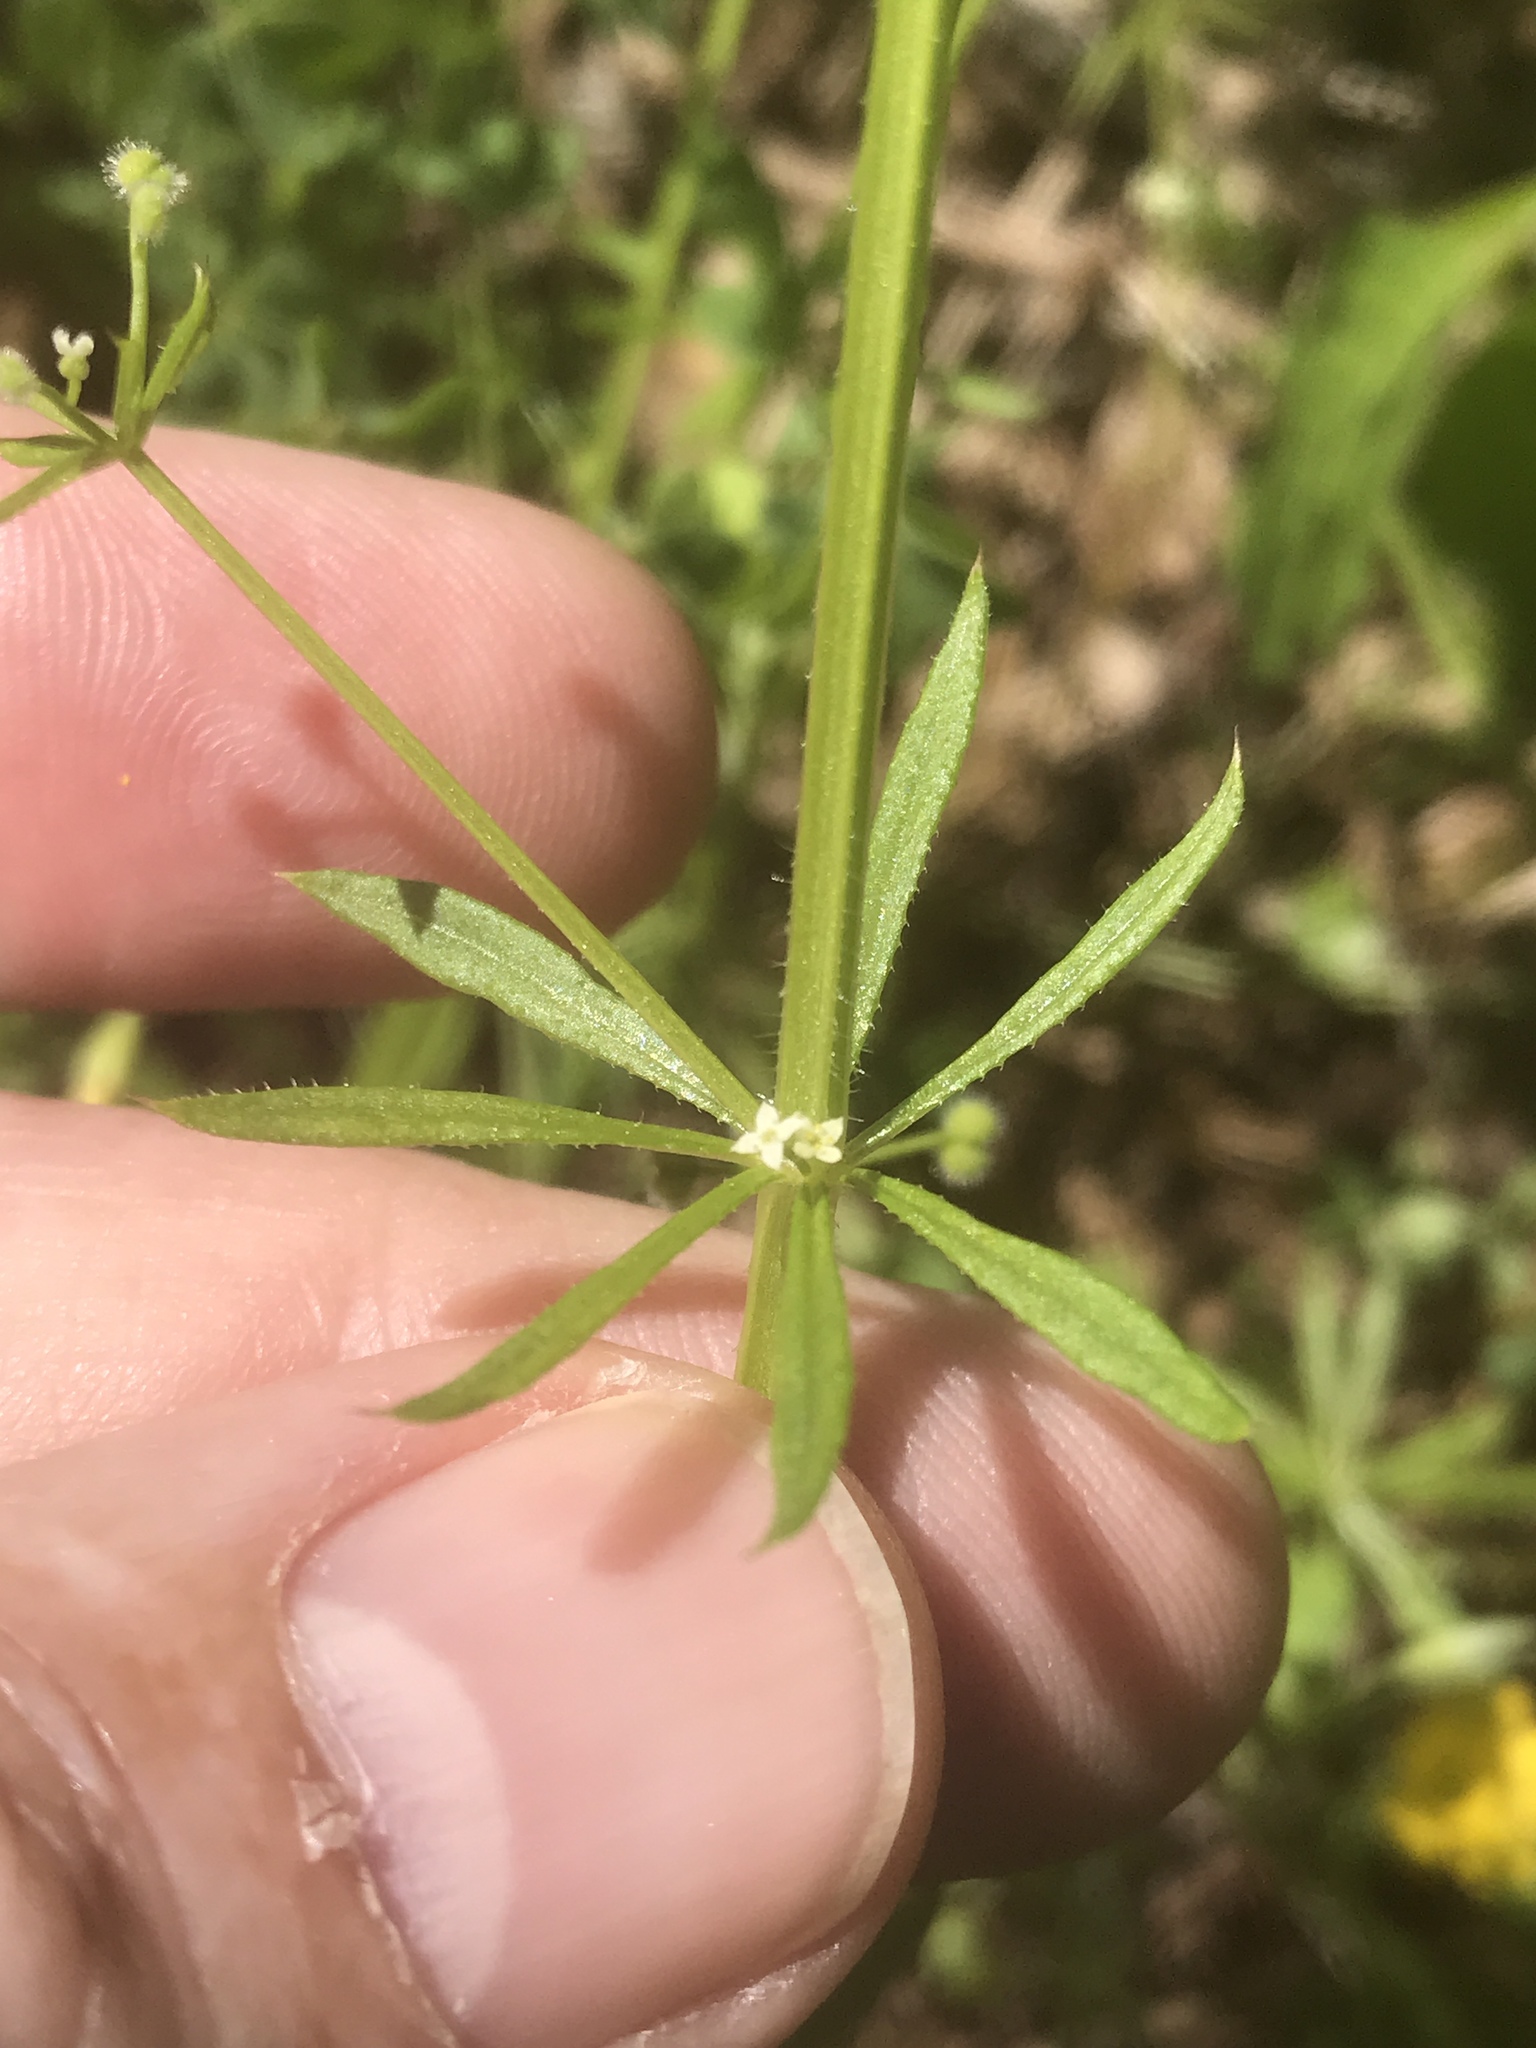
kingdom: Plantae
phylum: Tracheophyta
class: Magnoliopsida
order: Gentianales
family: Rubiaceae
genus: Galium
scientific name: Galium aparine
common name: Cleavers
